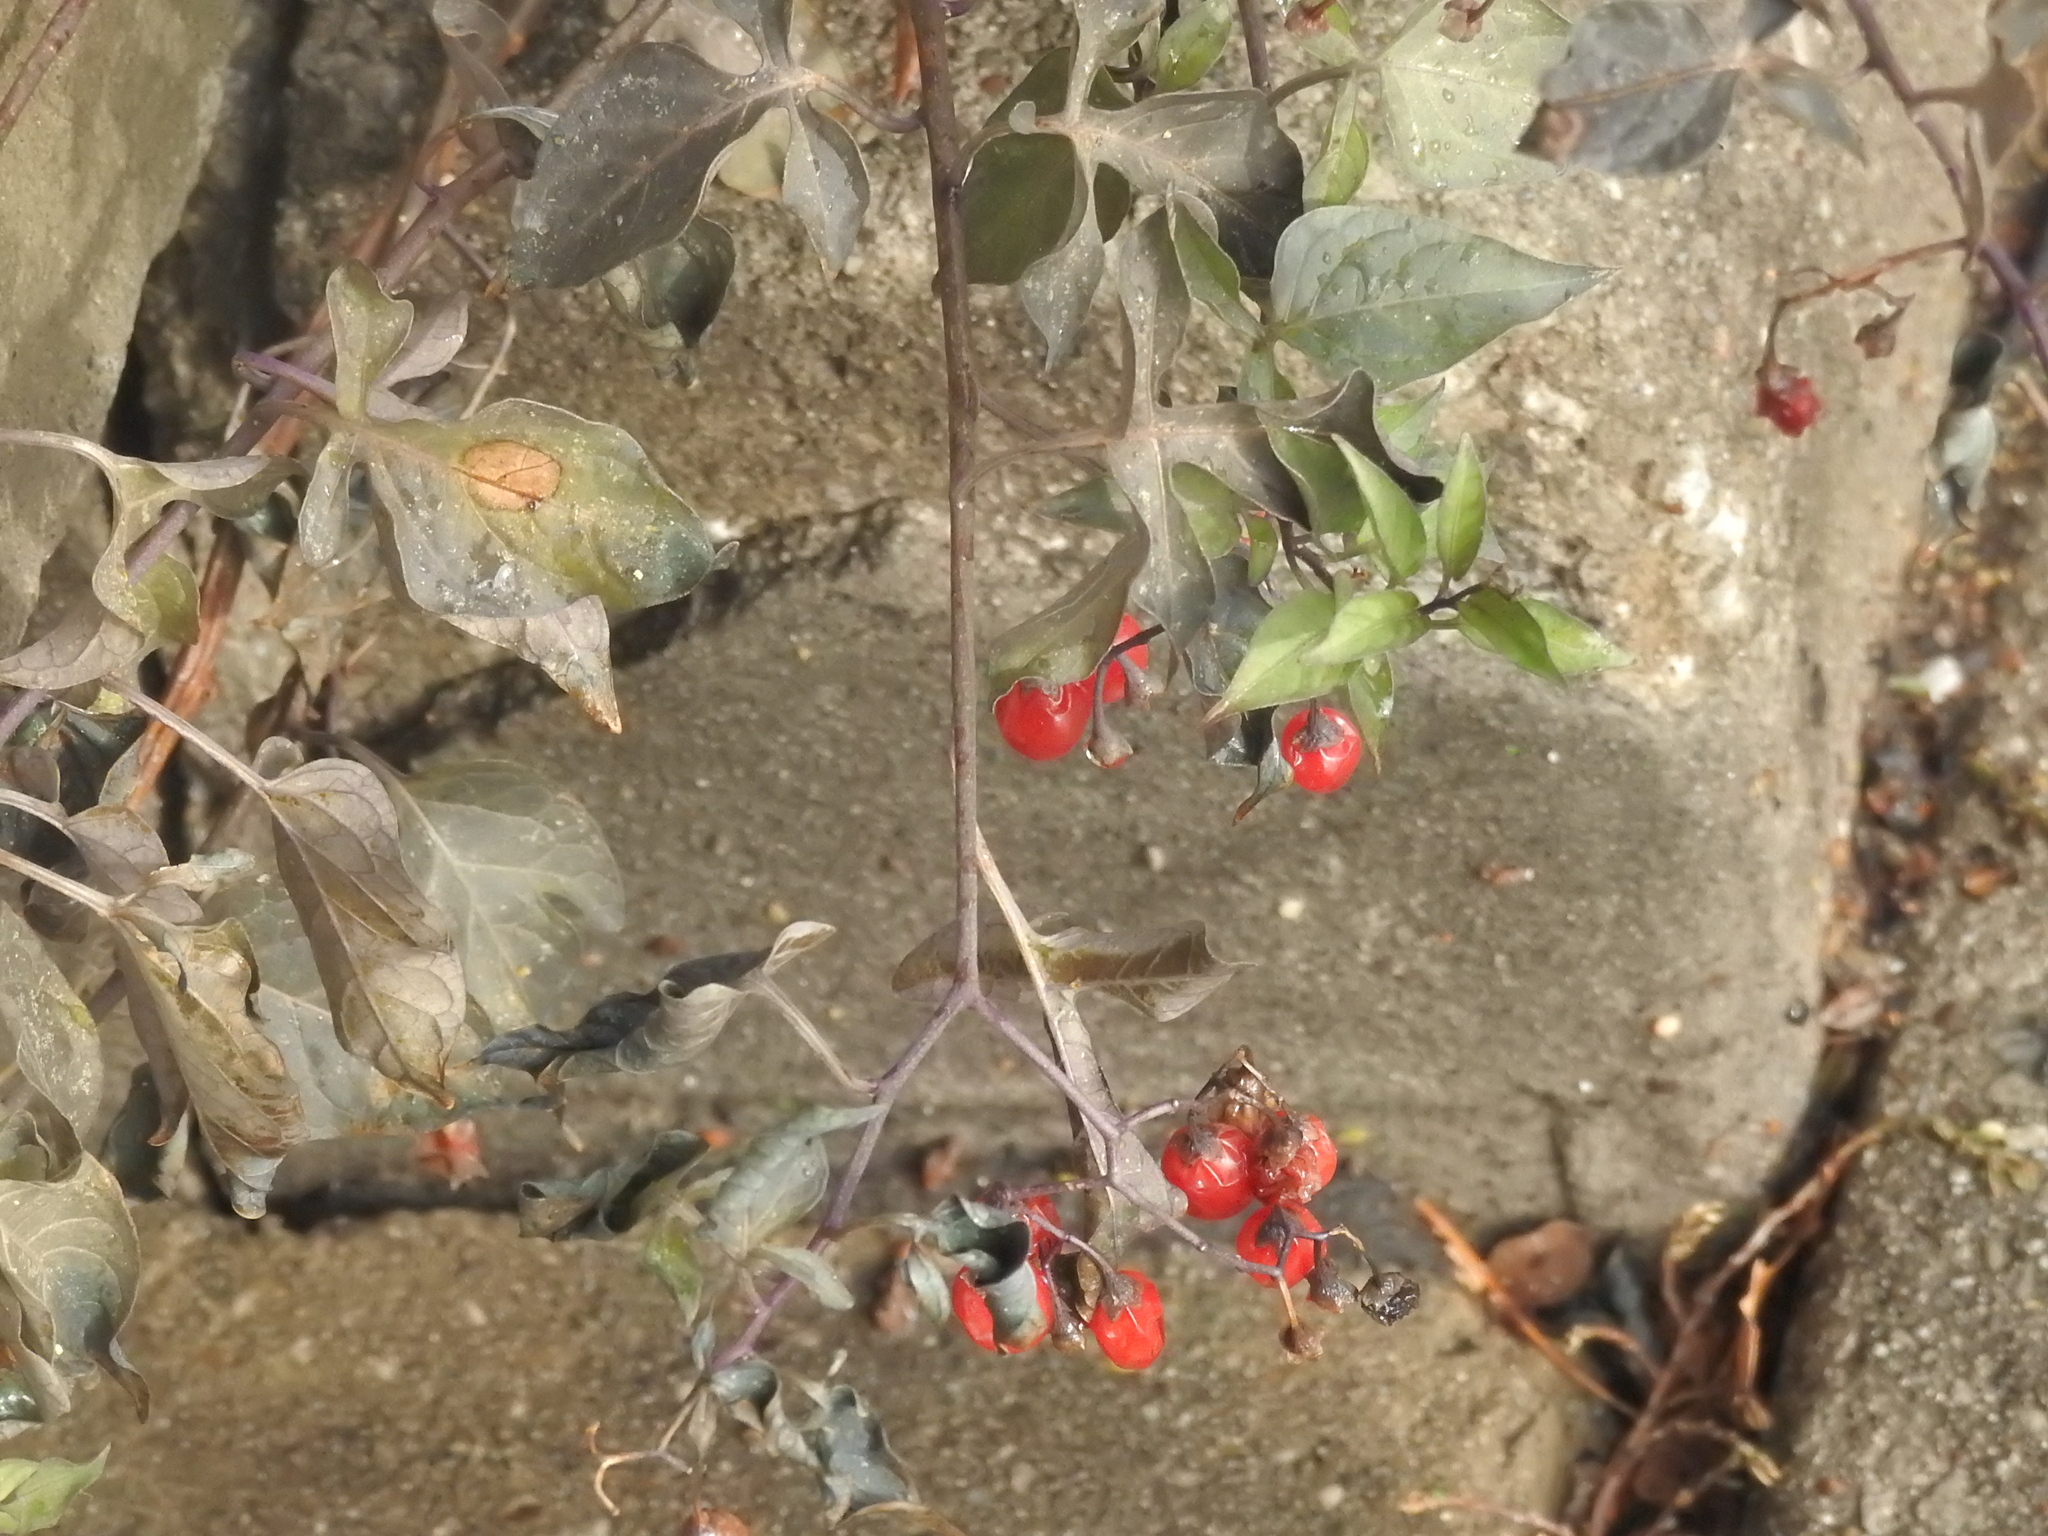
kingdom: Plantae
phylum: Tracheophyta
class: Magnoliopsida
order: Solanales
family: Solanaceae
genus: Solanum
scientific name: Solanum dulcamara
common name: Climbing nightshade
